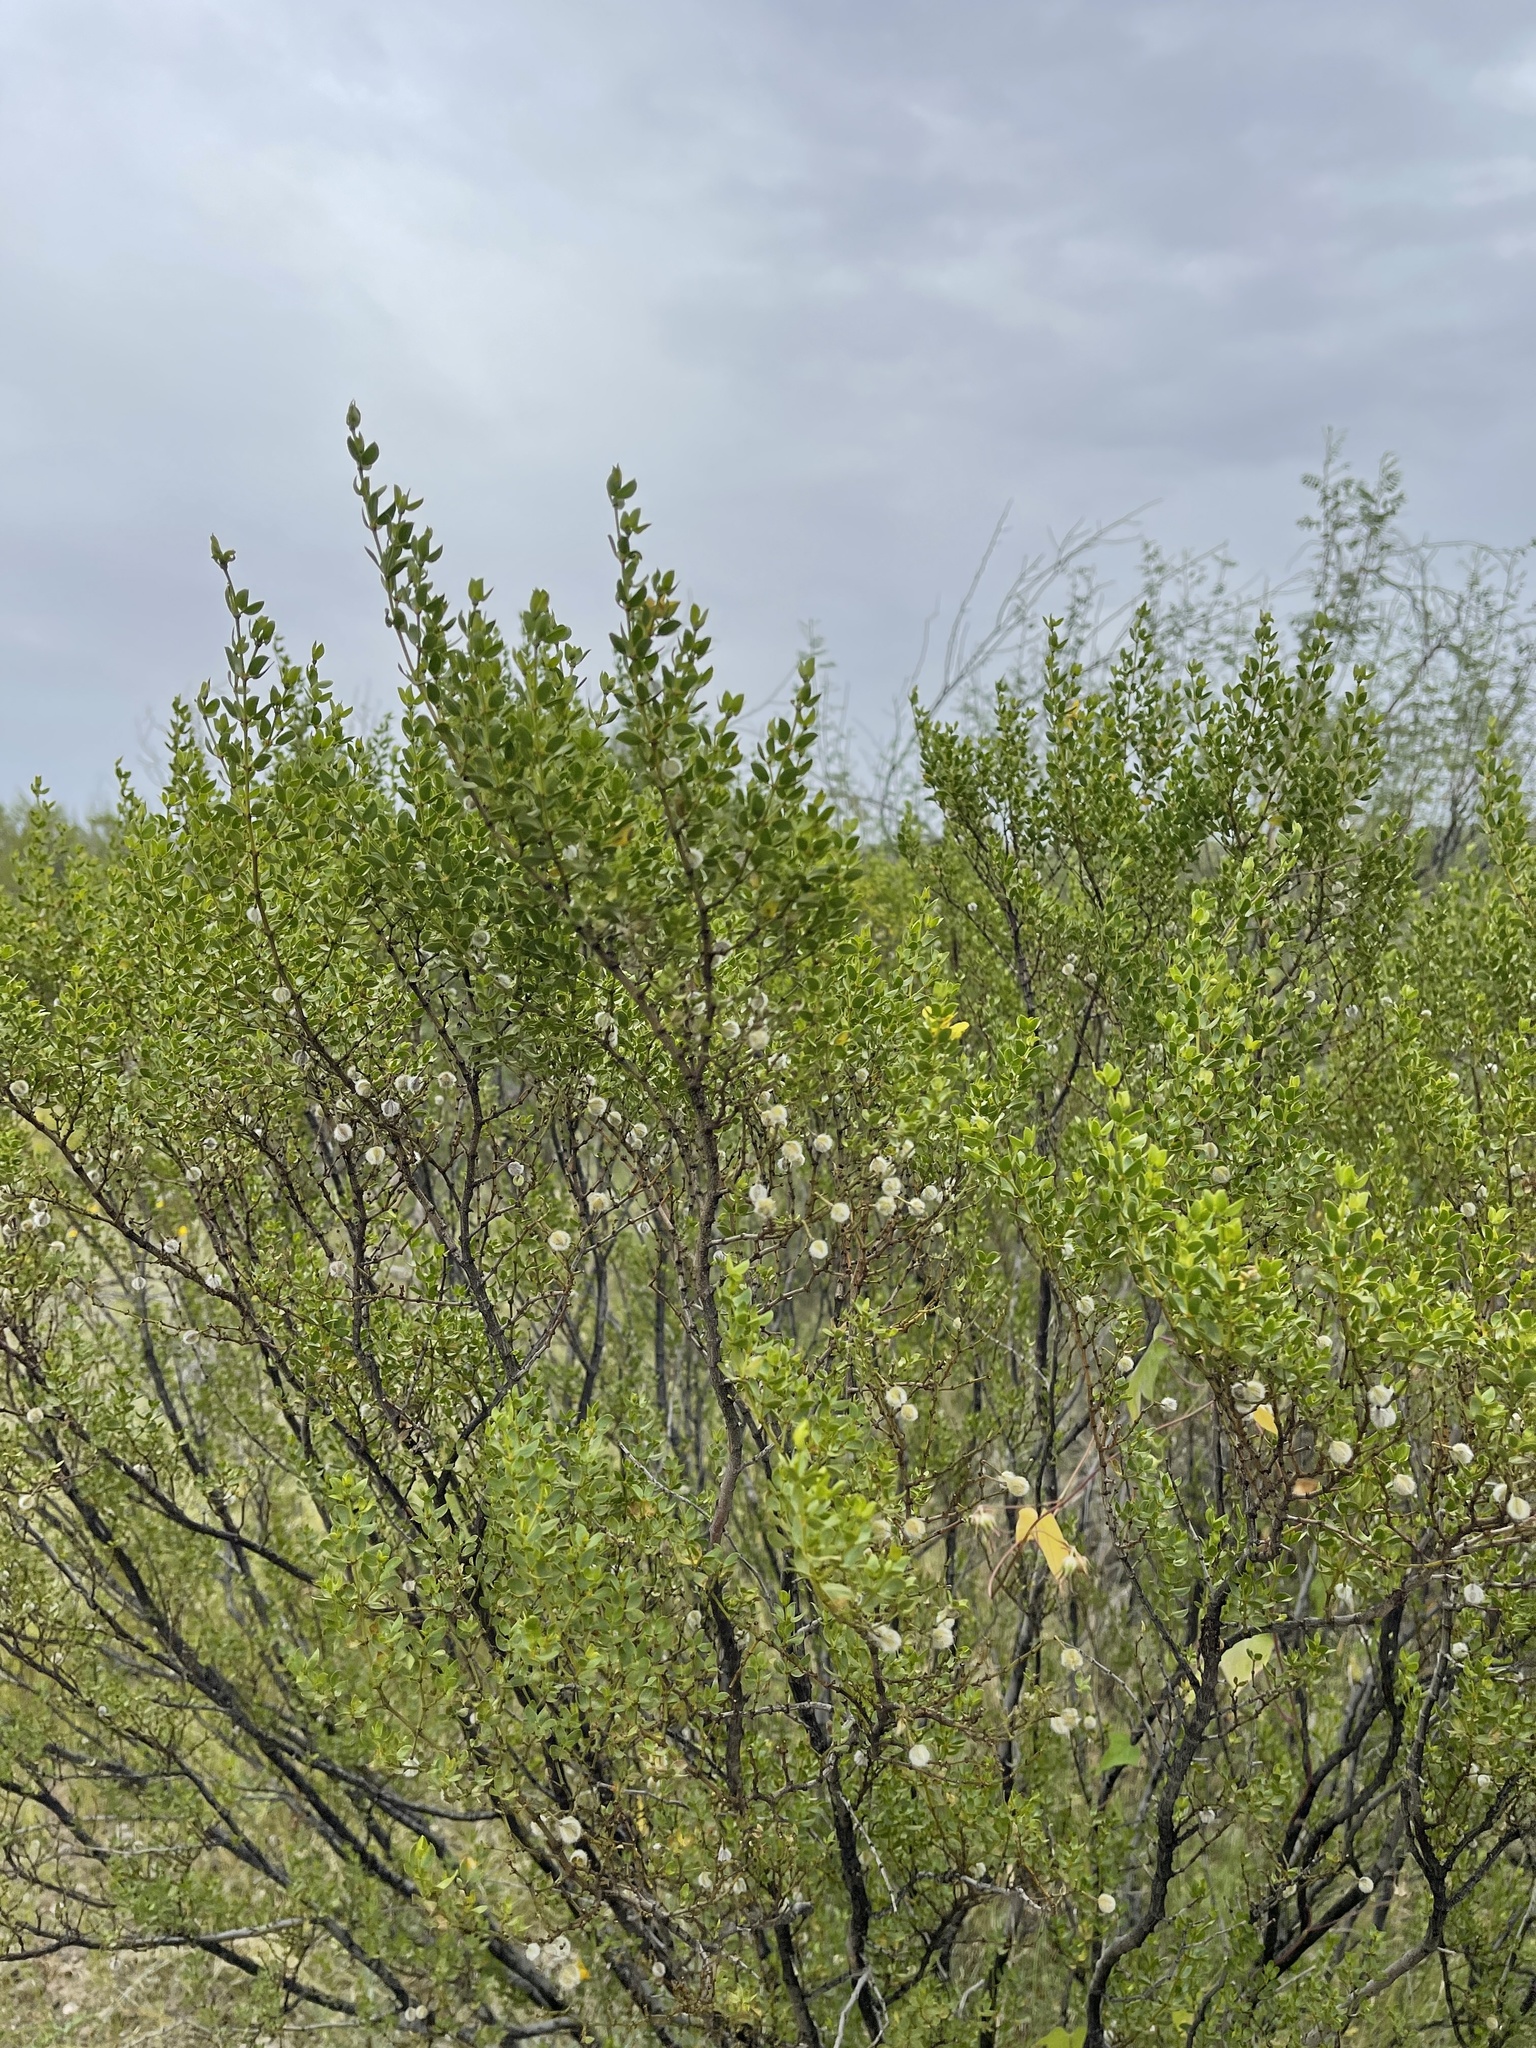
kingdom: Plantae
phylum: Tracheophyta
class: Magnoliopsida
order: Zygophyllales
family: Zygophyllaceae
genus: Larrea
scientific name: Larrea tridentata
